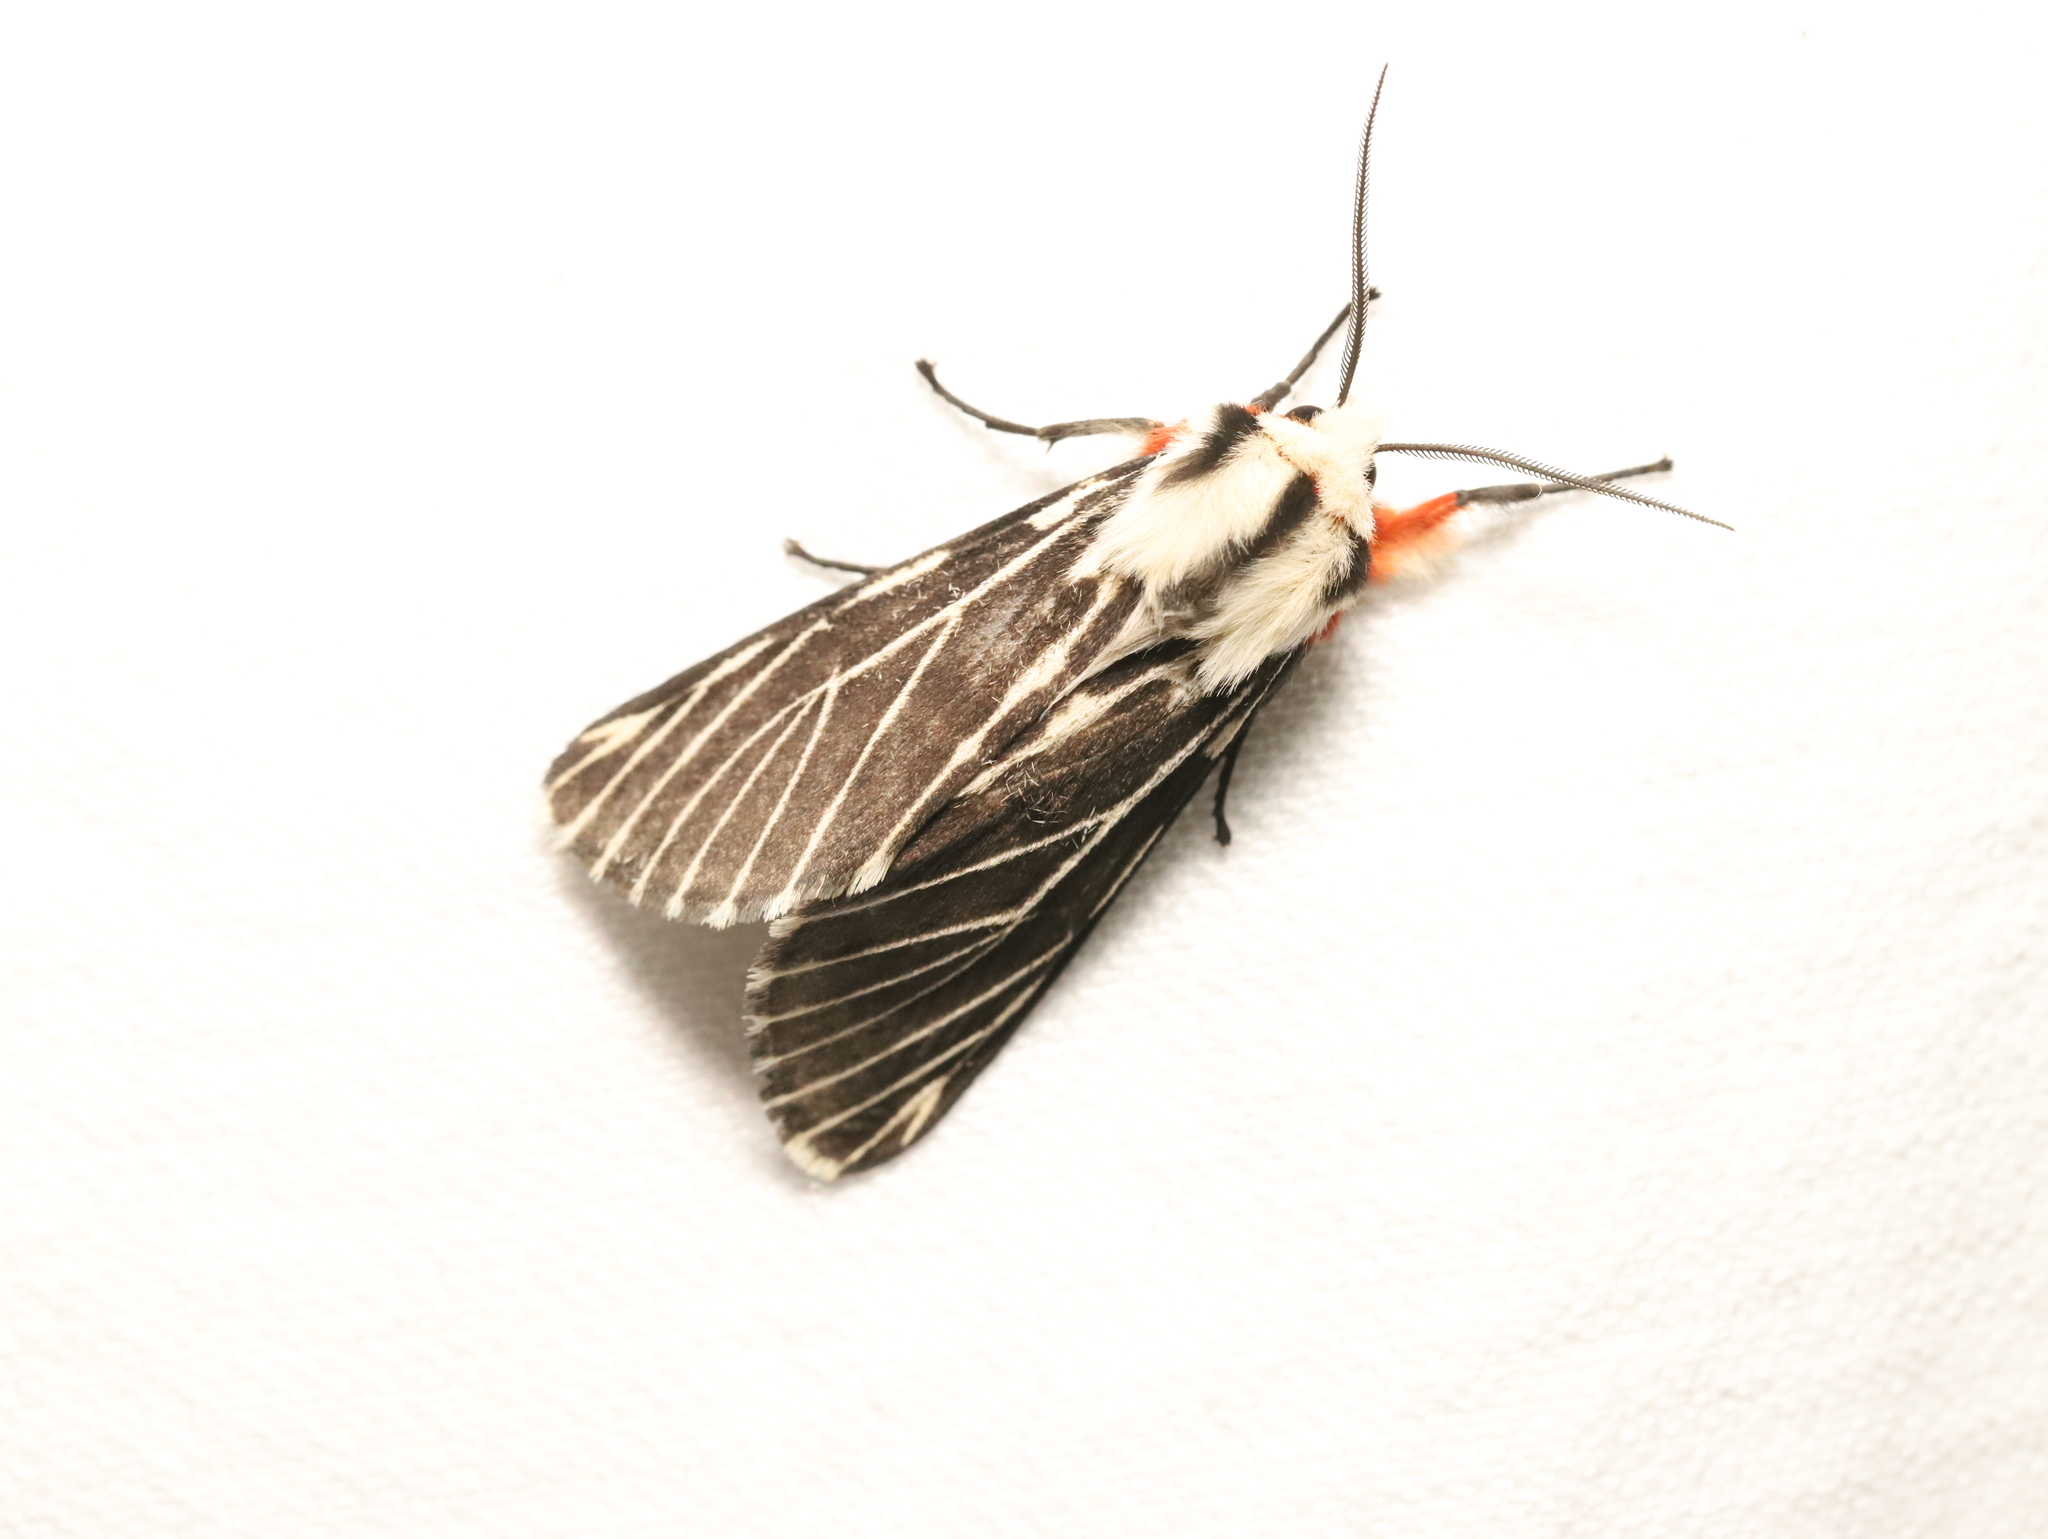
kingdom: Animalia
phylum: Arthropoda
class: Insecta
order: Lepidoptera
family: Erebidae
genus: Ardices
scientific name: Ardices glatignyi
